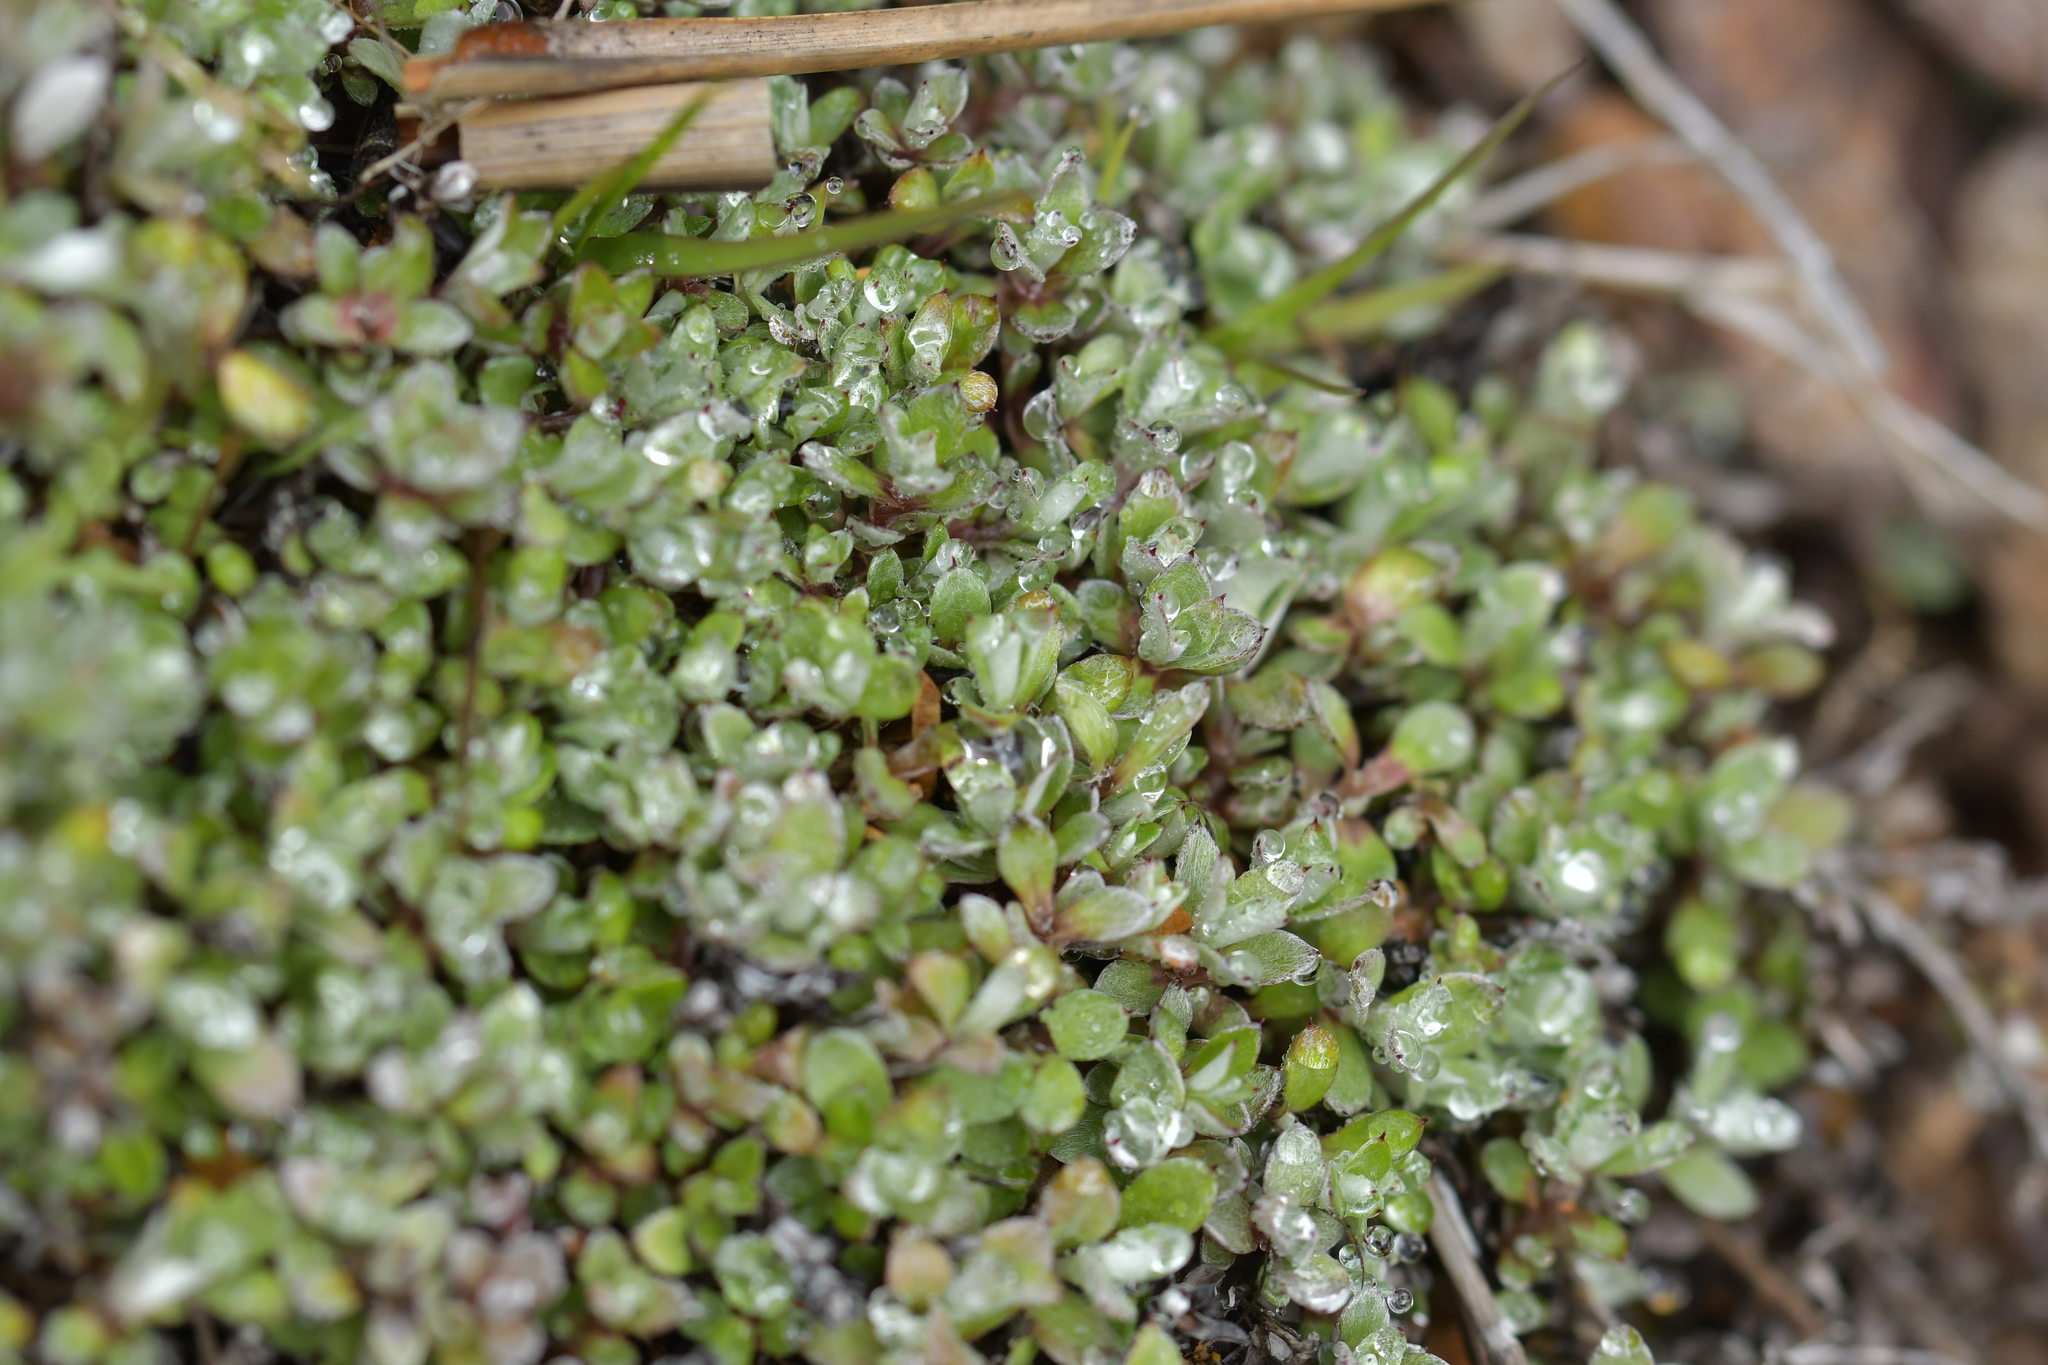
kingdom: Plantae
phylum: Tracheophyta
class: Magnoliopsida
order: Asterales
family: Asteraceae
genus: Anaphalioides
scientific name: Anaphalioides bellidioides
